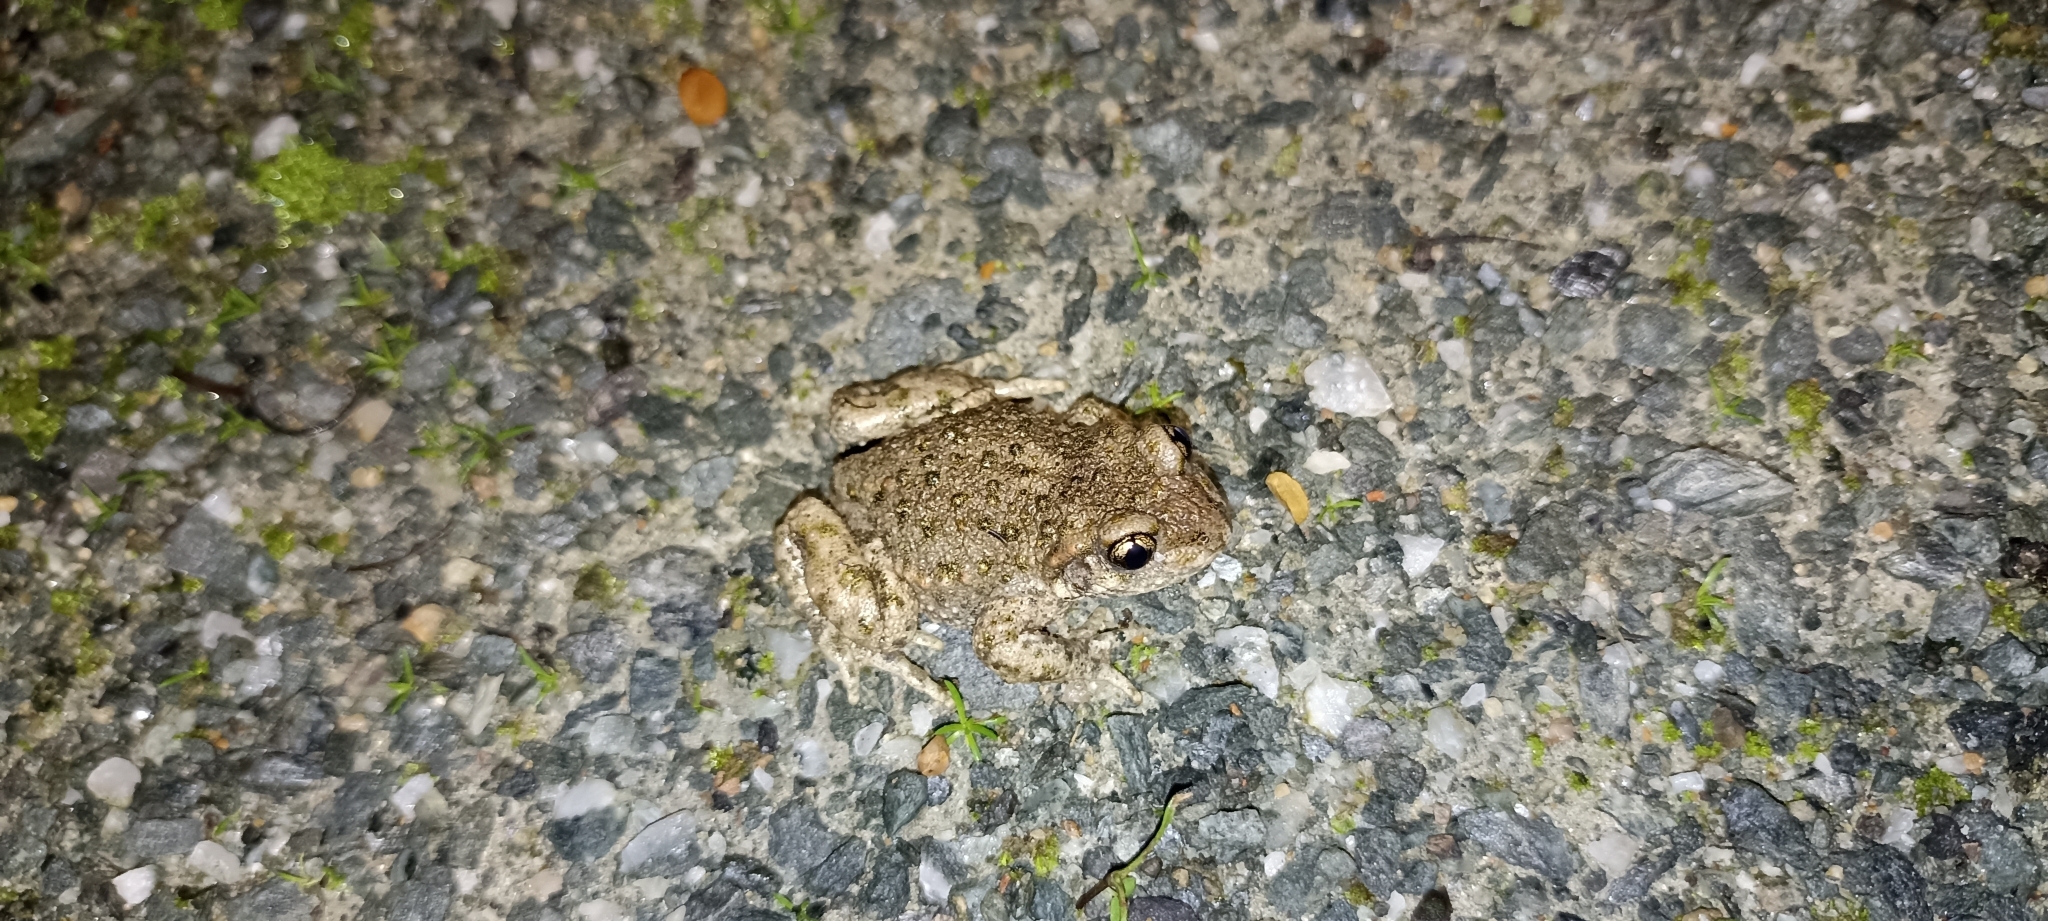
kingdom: Animalia
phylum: Chordata
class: Amphibia
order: Anura
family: Alytidae
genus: Alytes
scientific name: Alytes obstetricans
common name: Midwife toad
